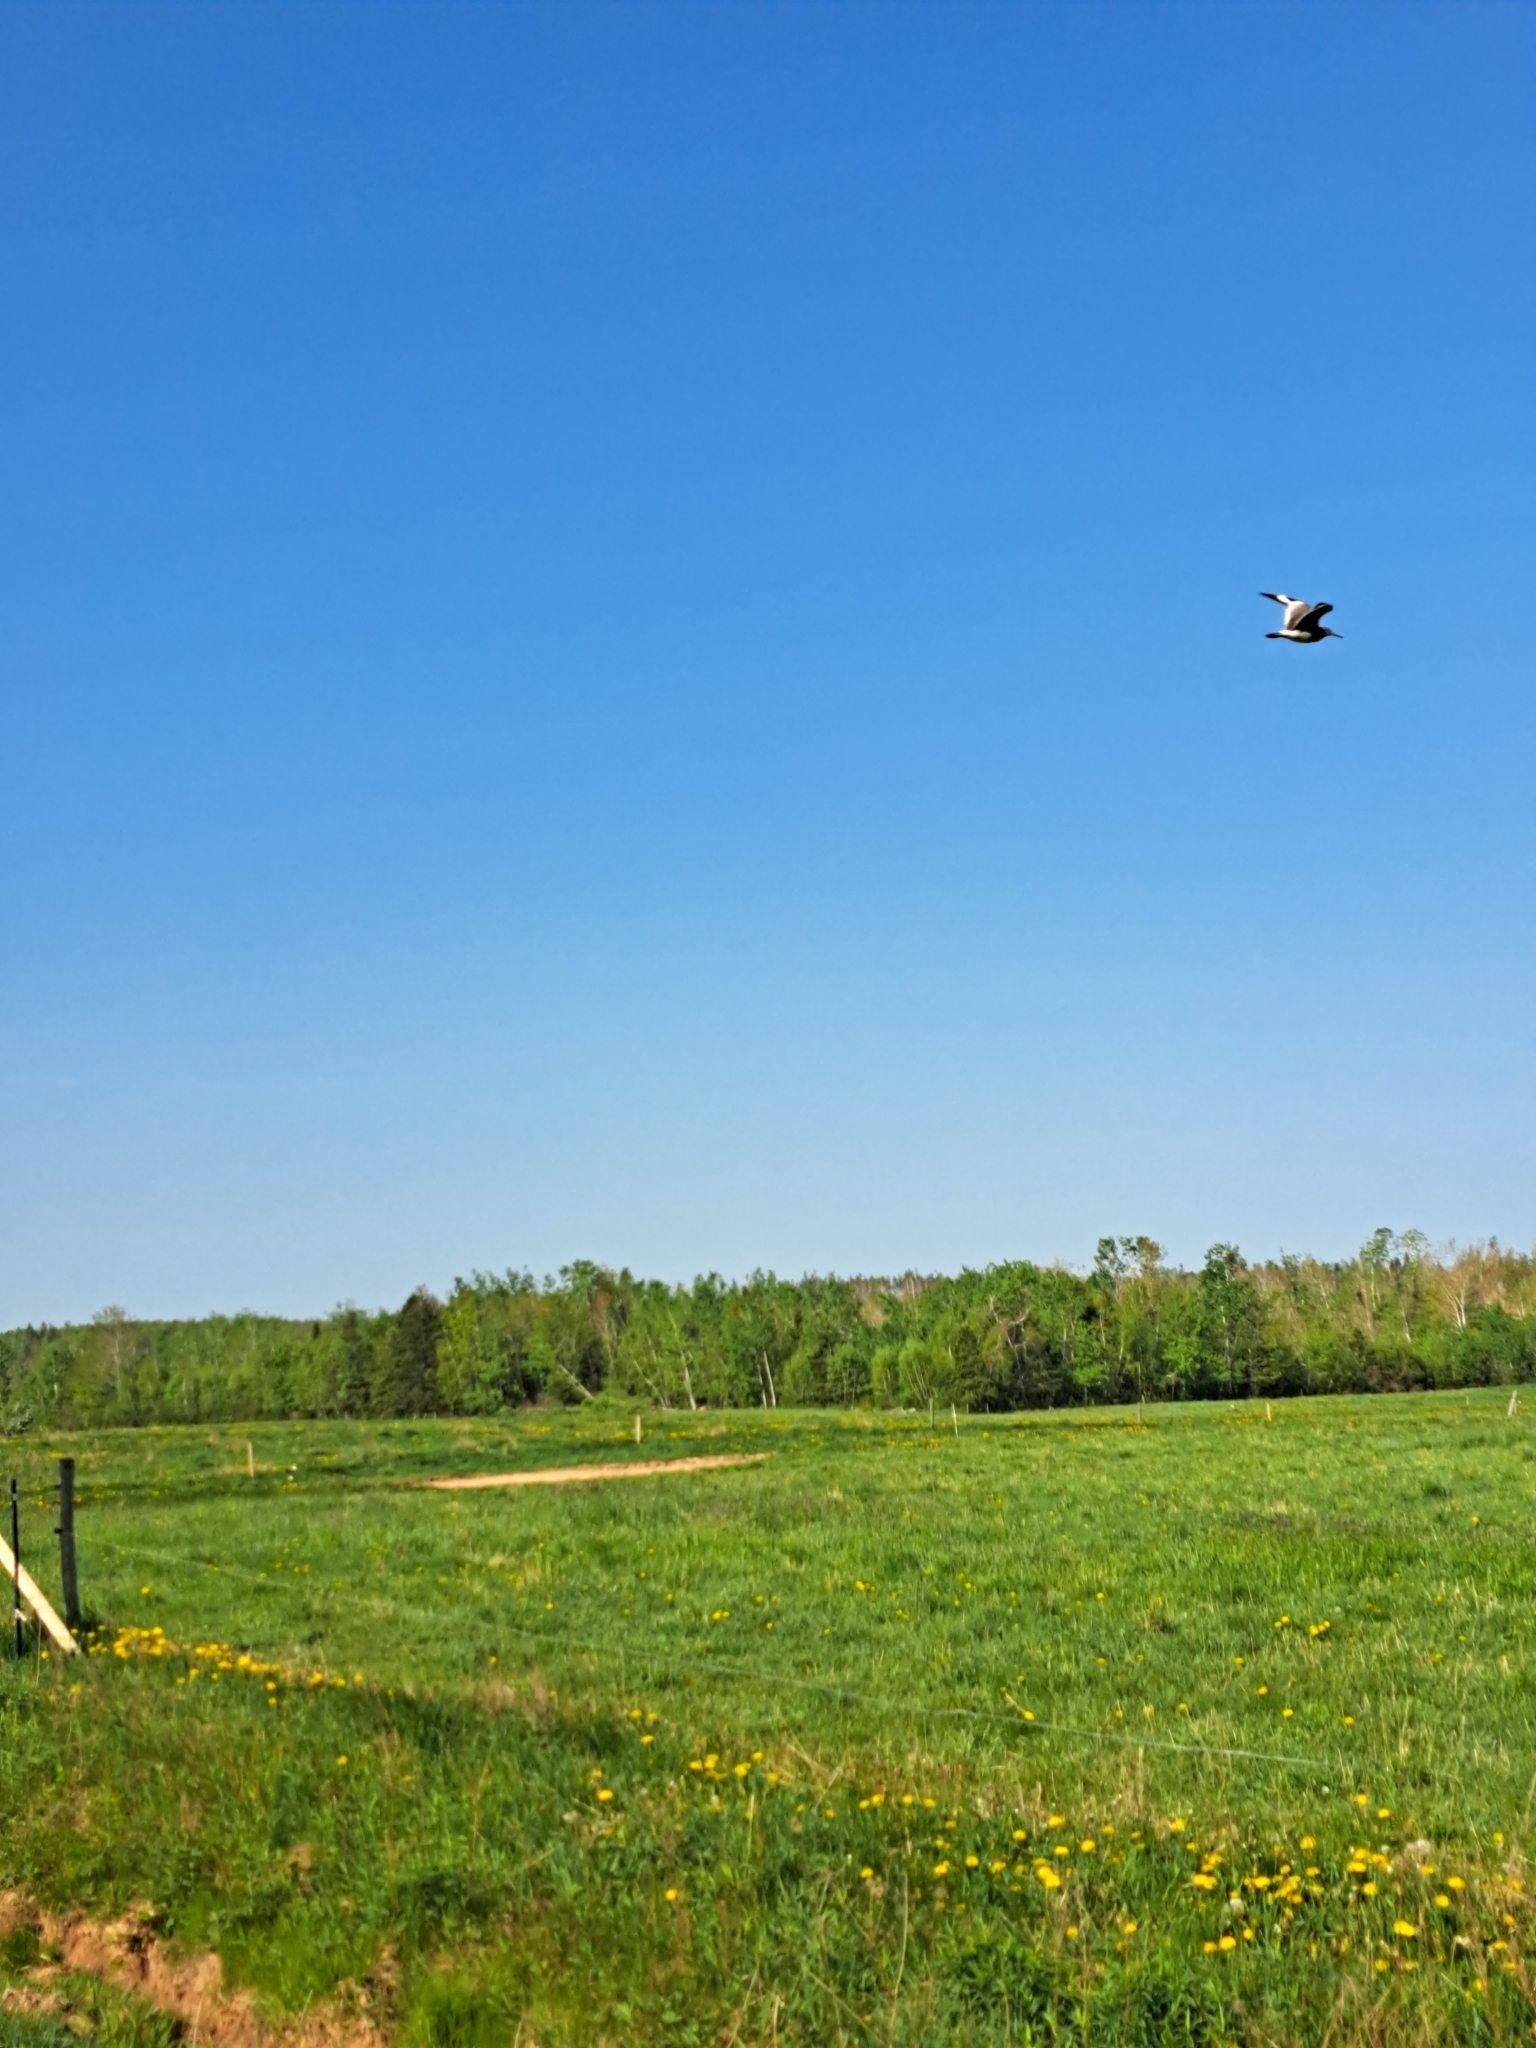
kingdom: Animalia
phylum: Chordata
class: Aves
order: Charadriiformes
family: Scolopacidae
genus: Tringa
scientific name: Tringa semipalmata
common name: Willet
